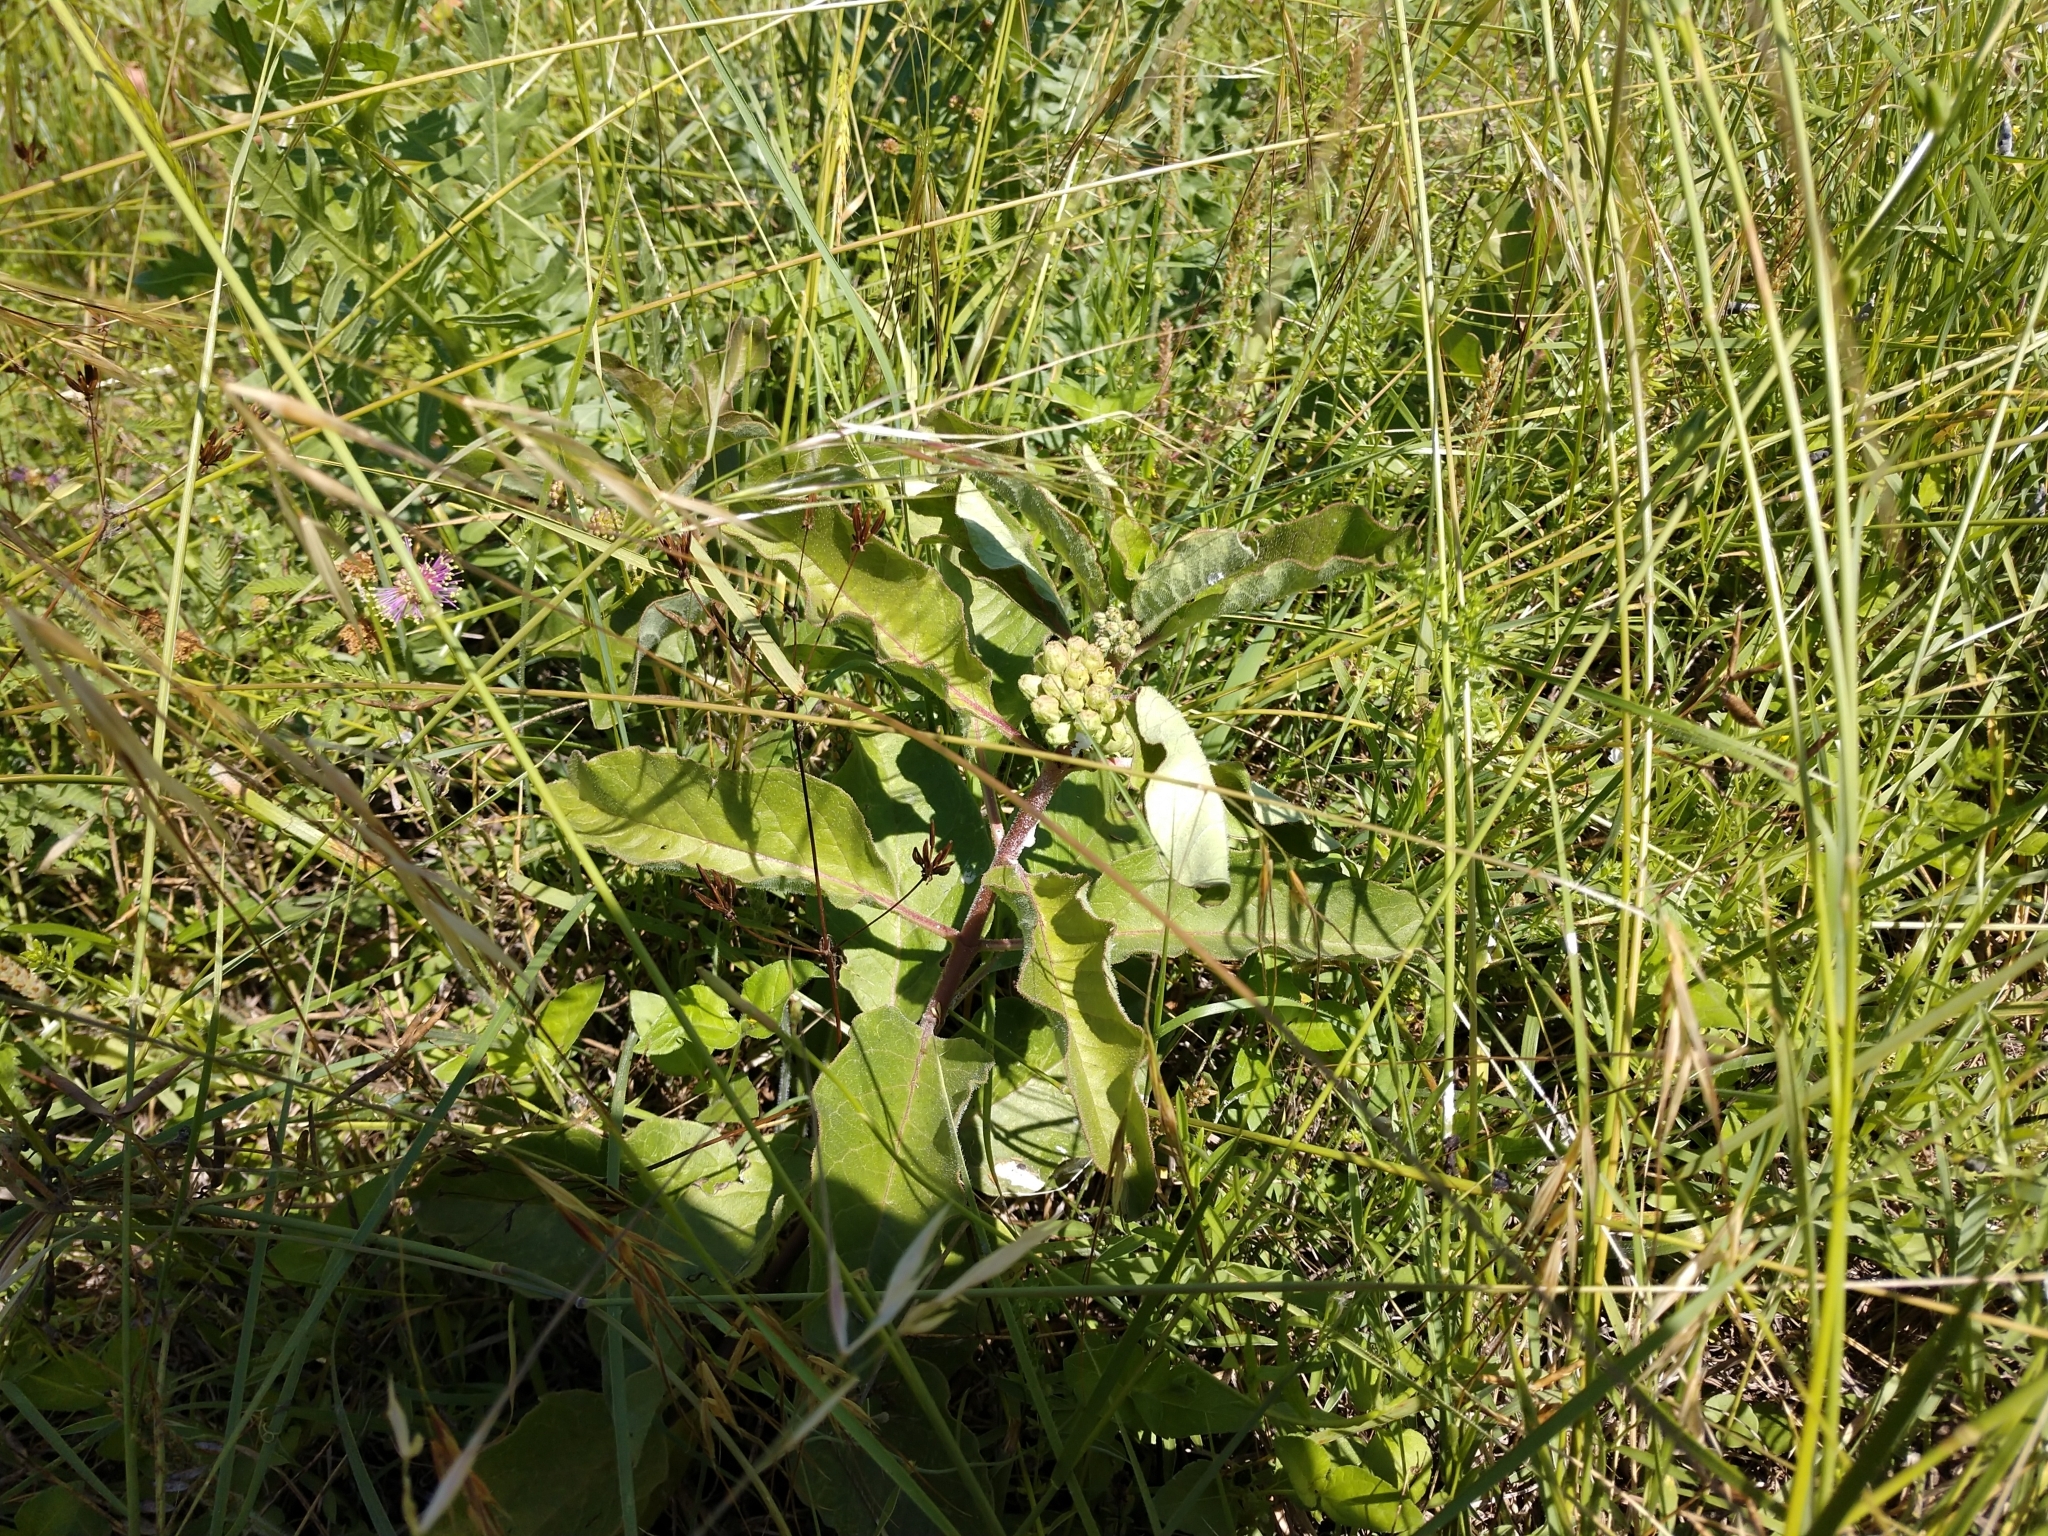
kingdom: Plantae
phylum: Tracheophyta
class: Magnoliopsida
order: Gentianales
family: Apocynaceae
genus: Asclepias
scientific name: Asclepias oenotheroides
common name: Zizotes milkweed
